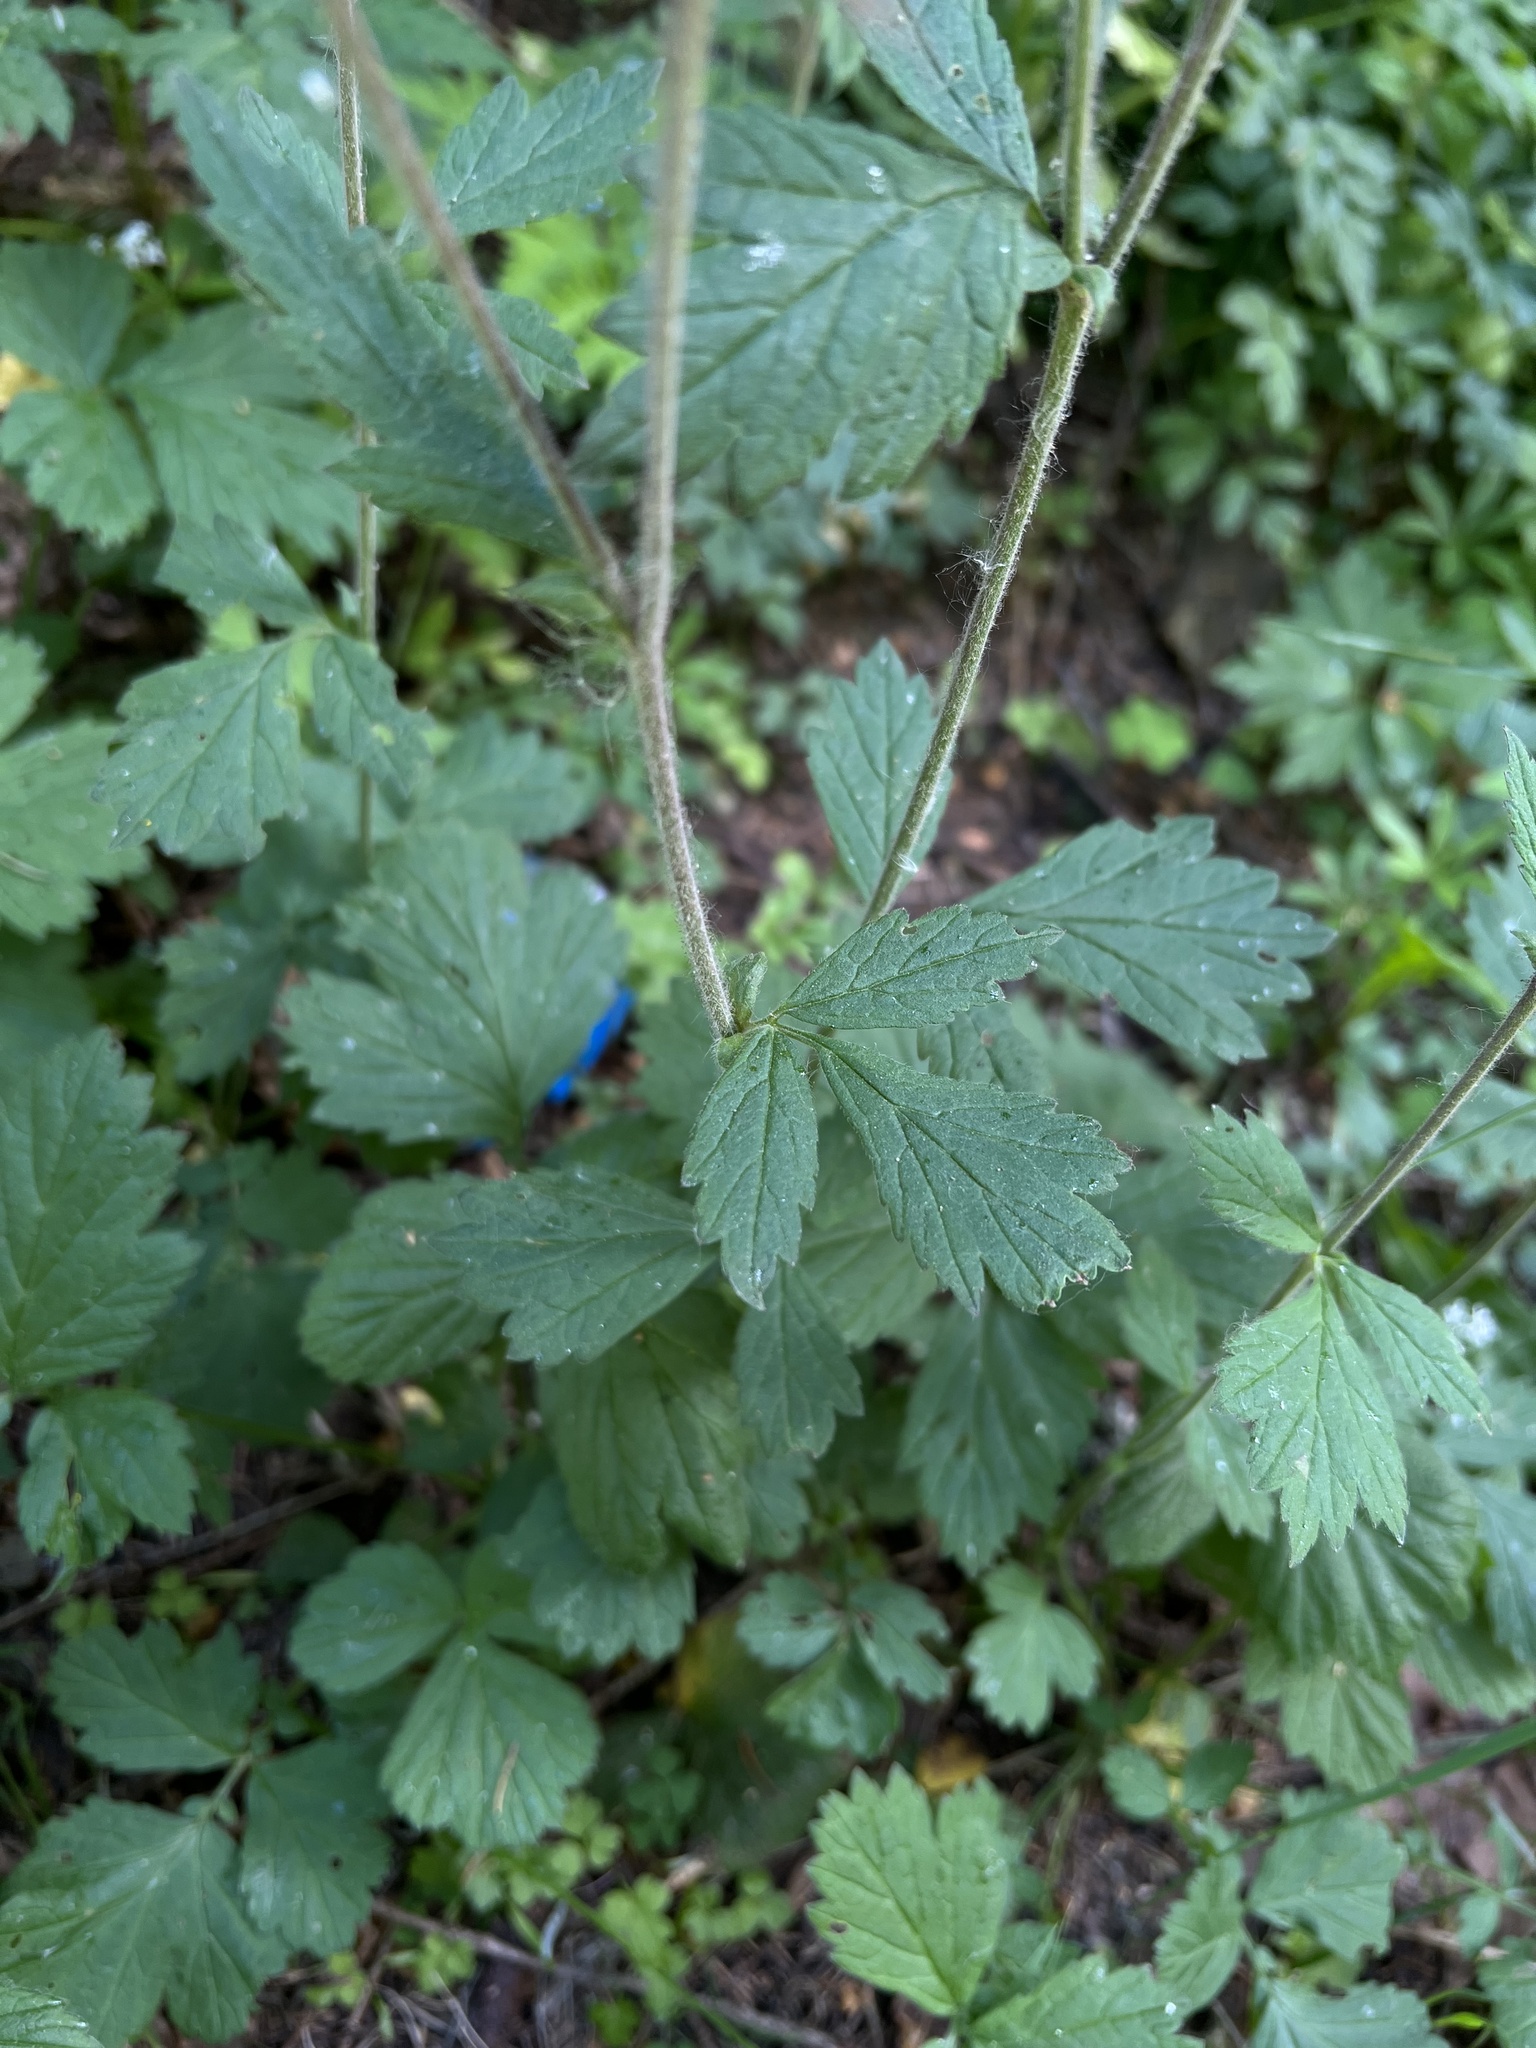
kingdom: Plantae
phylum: Tracheophyta
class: Magnoliopsida
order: Rosales
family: Rosaceae
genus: Geum
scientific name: Geum rivale
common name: Water avens
